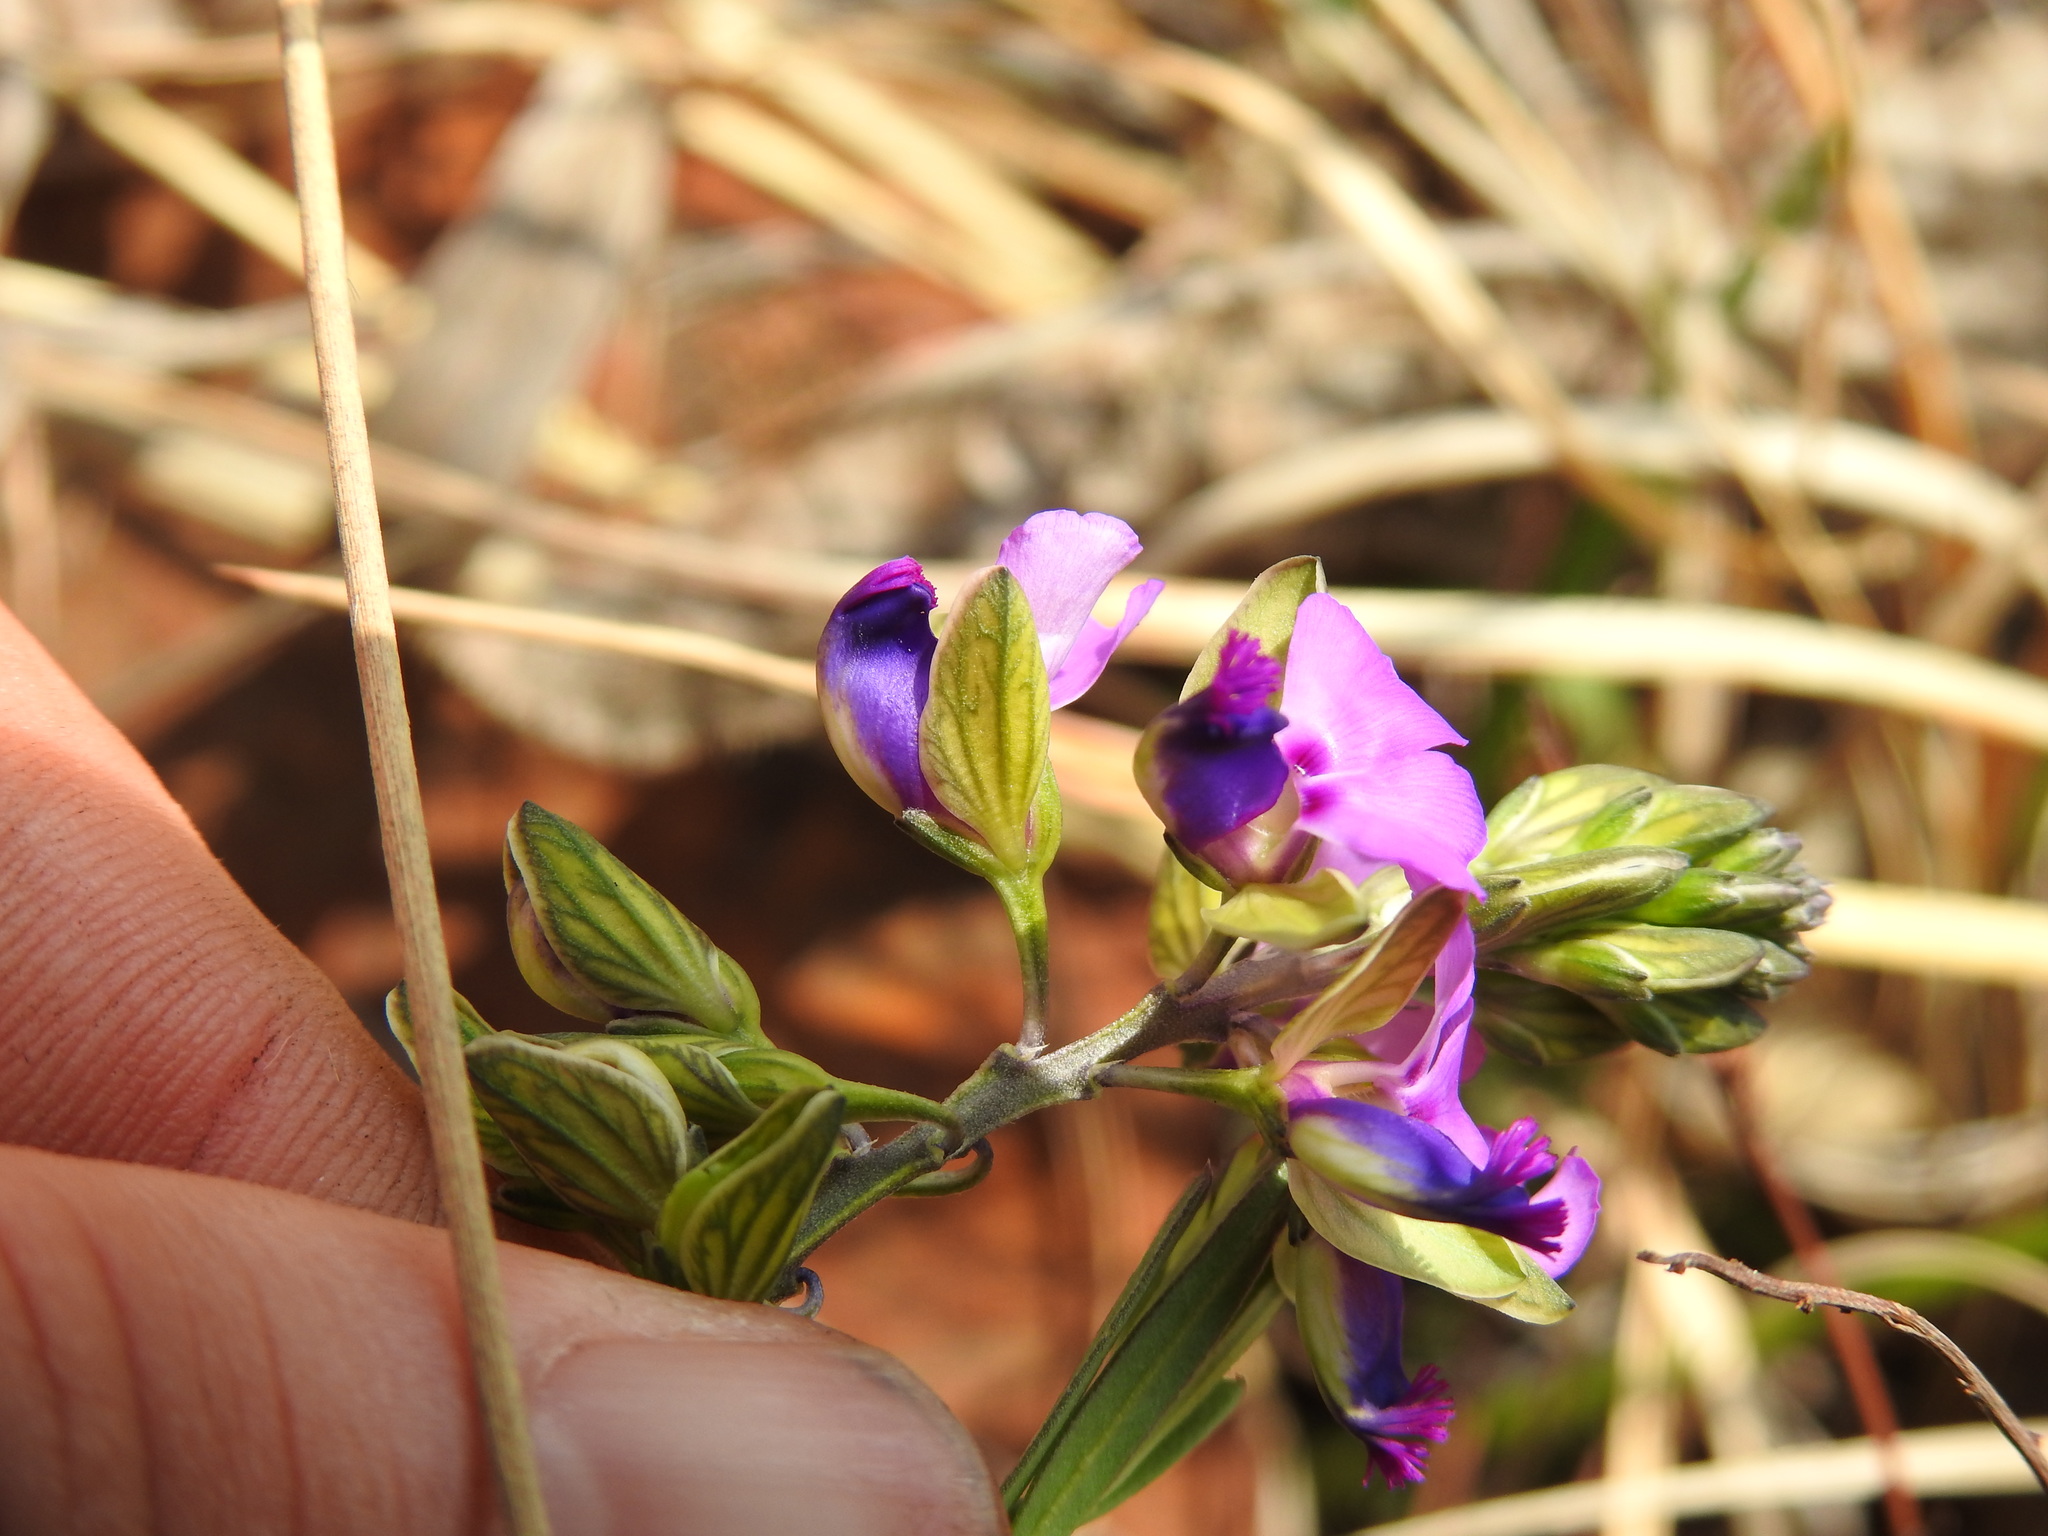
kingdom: Plantae
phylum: Tracheophyta
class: Magnoliopsida
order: Fabales
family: Polygalaceae
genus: Polygala
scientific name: Polygala uncinata
